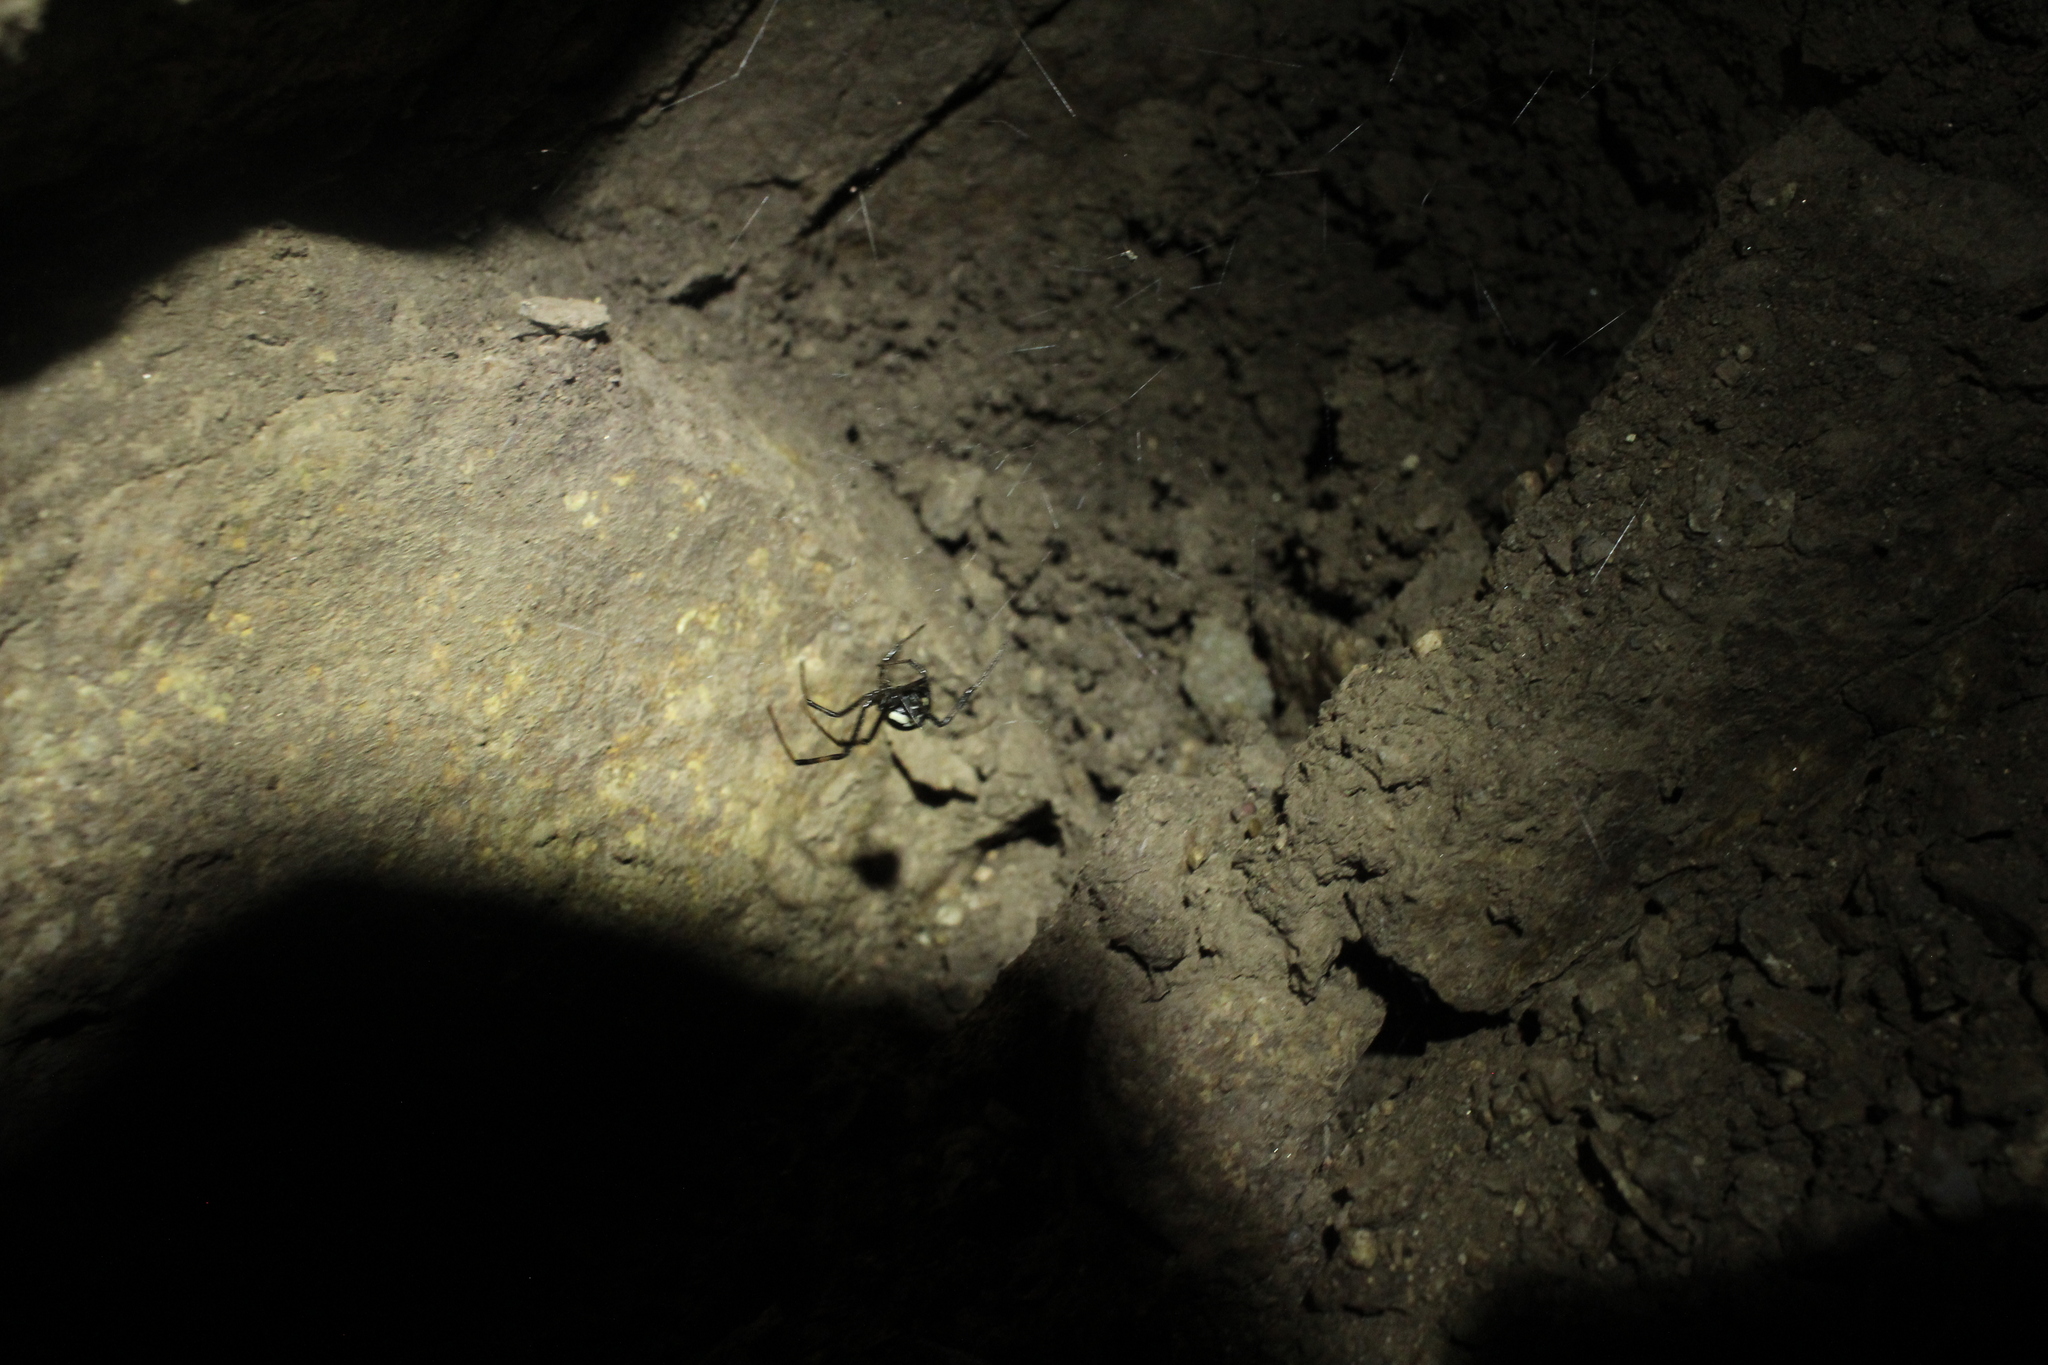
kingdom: Animalia
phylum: Arthropoda
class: Arachnida
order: Araneae
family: Theridiidae
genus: Latrodectus
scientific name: Latrodectus hesperus
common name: Western black widow
